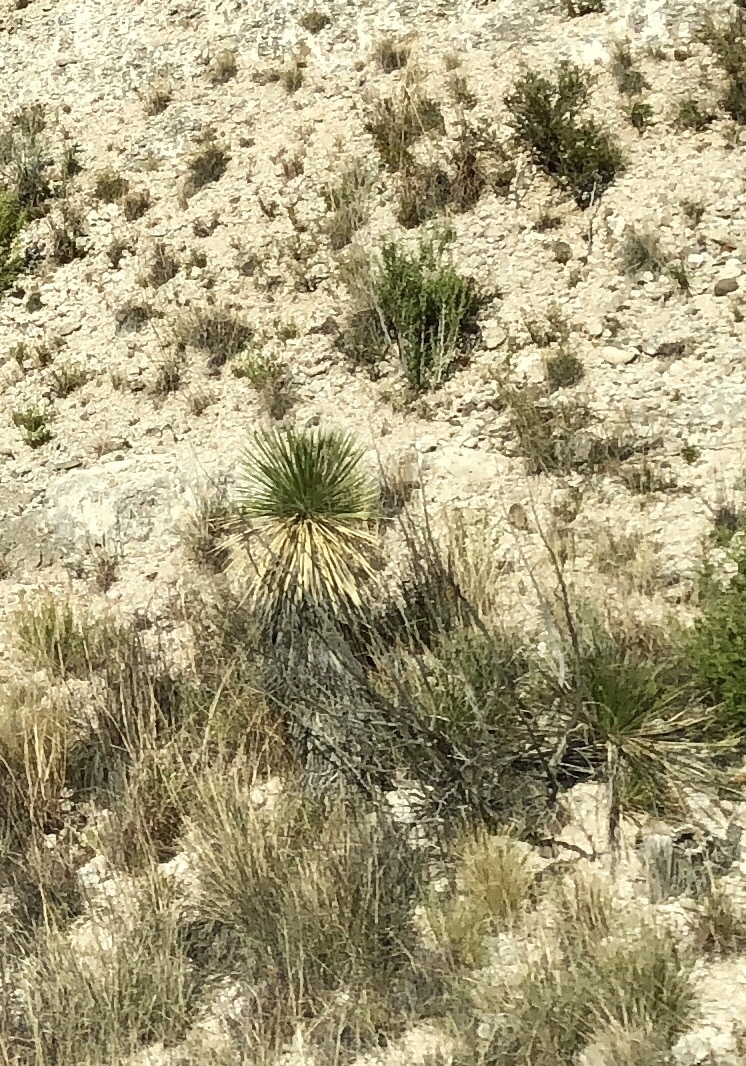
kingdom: Plantae
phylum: Tracheophyta
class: Liliopsida
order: Asparagales
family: Asparagaceae
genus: Yucca
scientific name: Yucca elata
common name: Palmella
